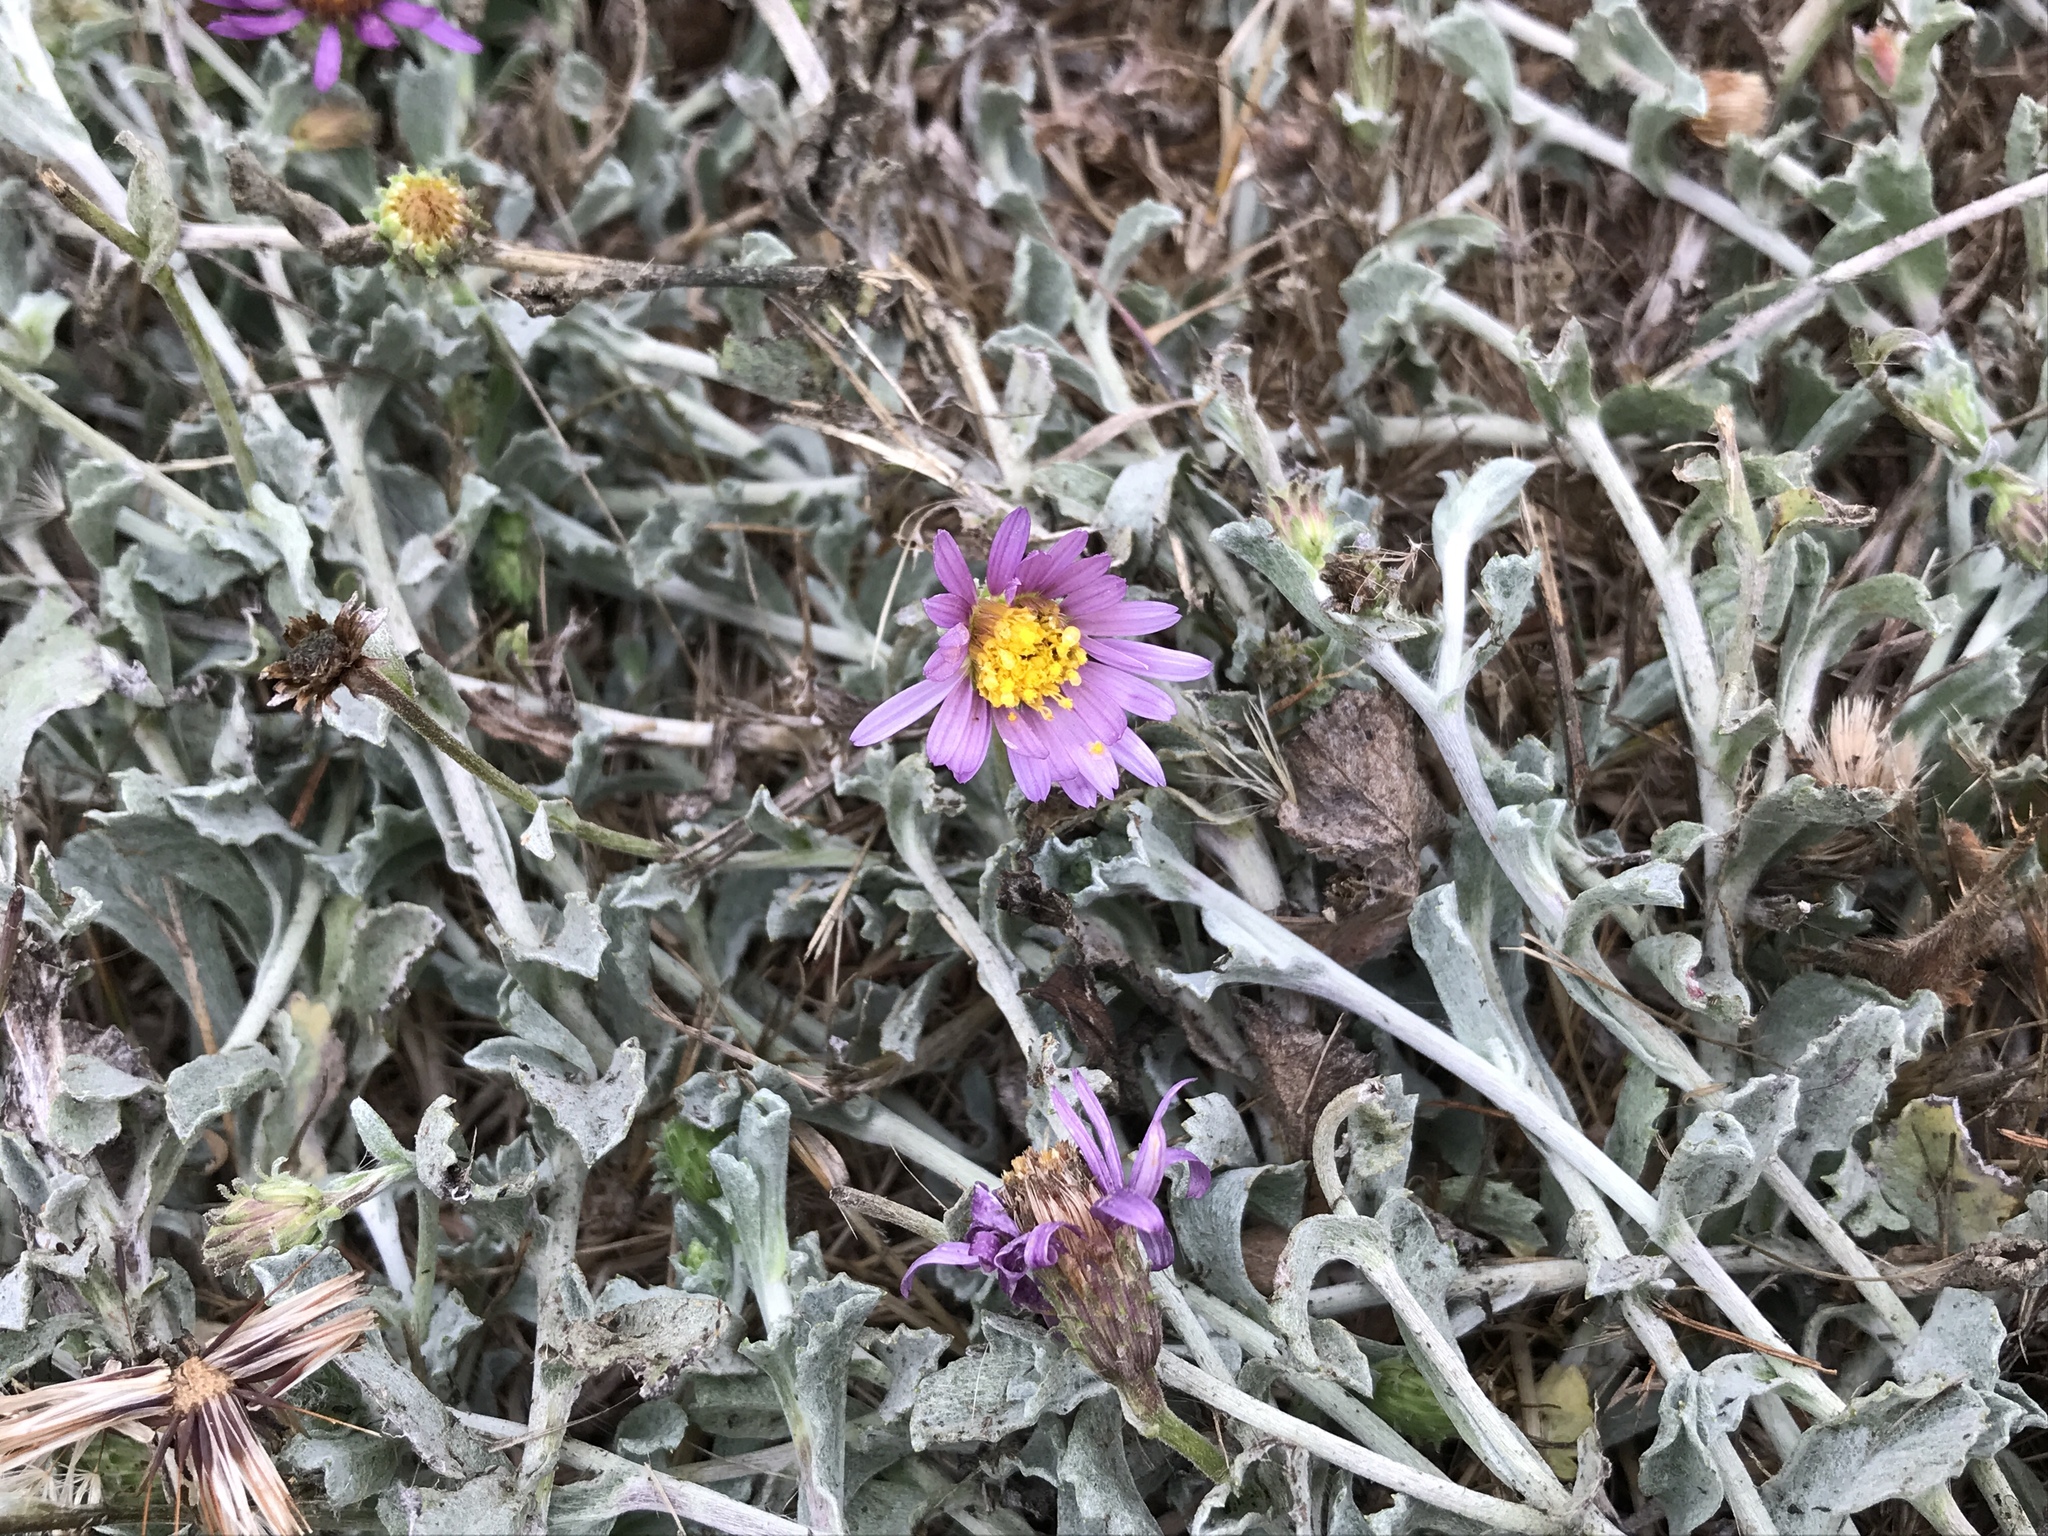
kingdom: Plantae
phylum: Tracheophyta
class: Magnoliopsida
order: Asterales
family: Asteraceae
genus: Corethrogyne
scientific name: Corethrogyne filaginifolia
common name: Sand-aster
